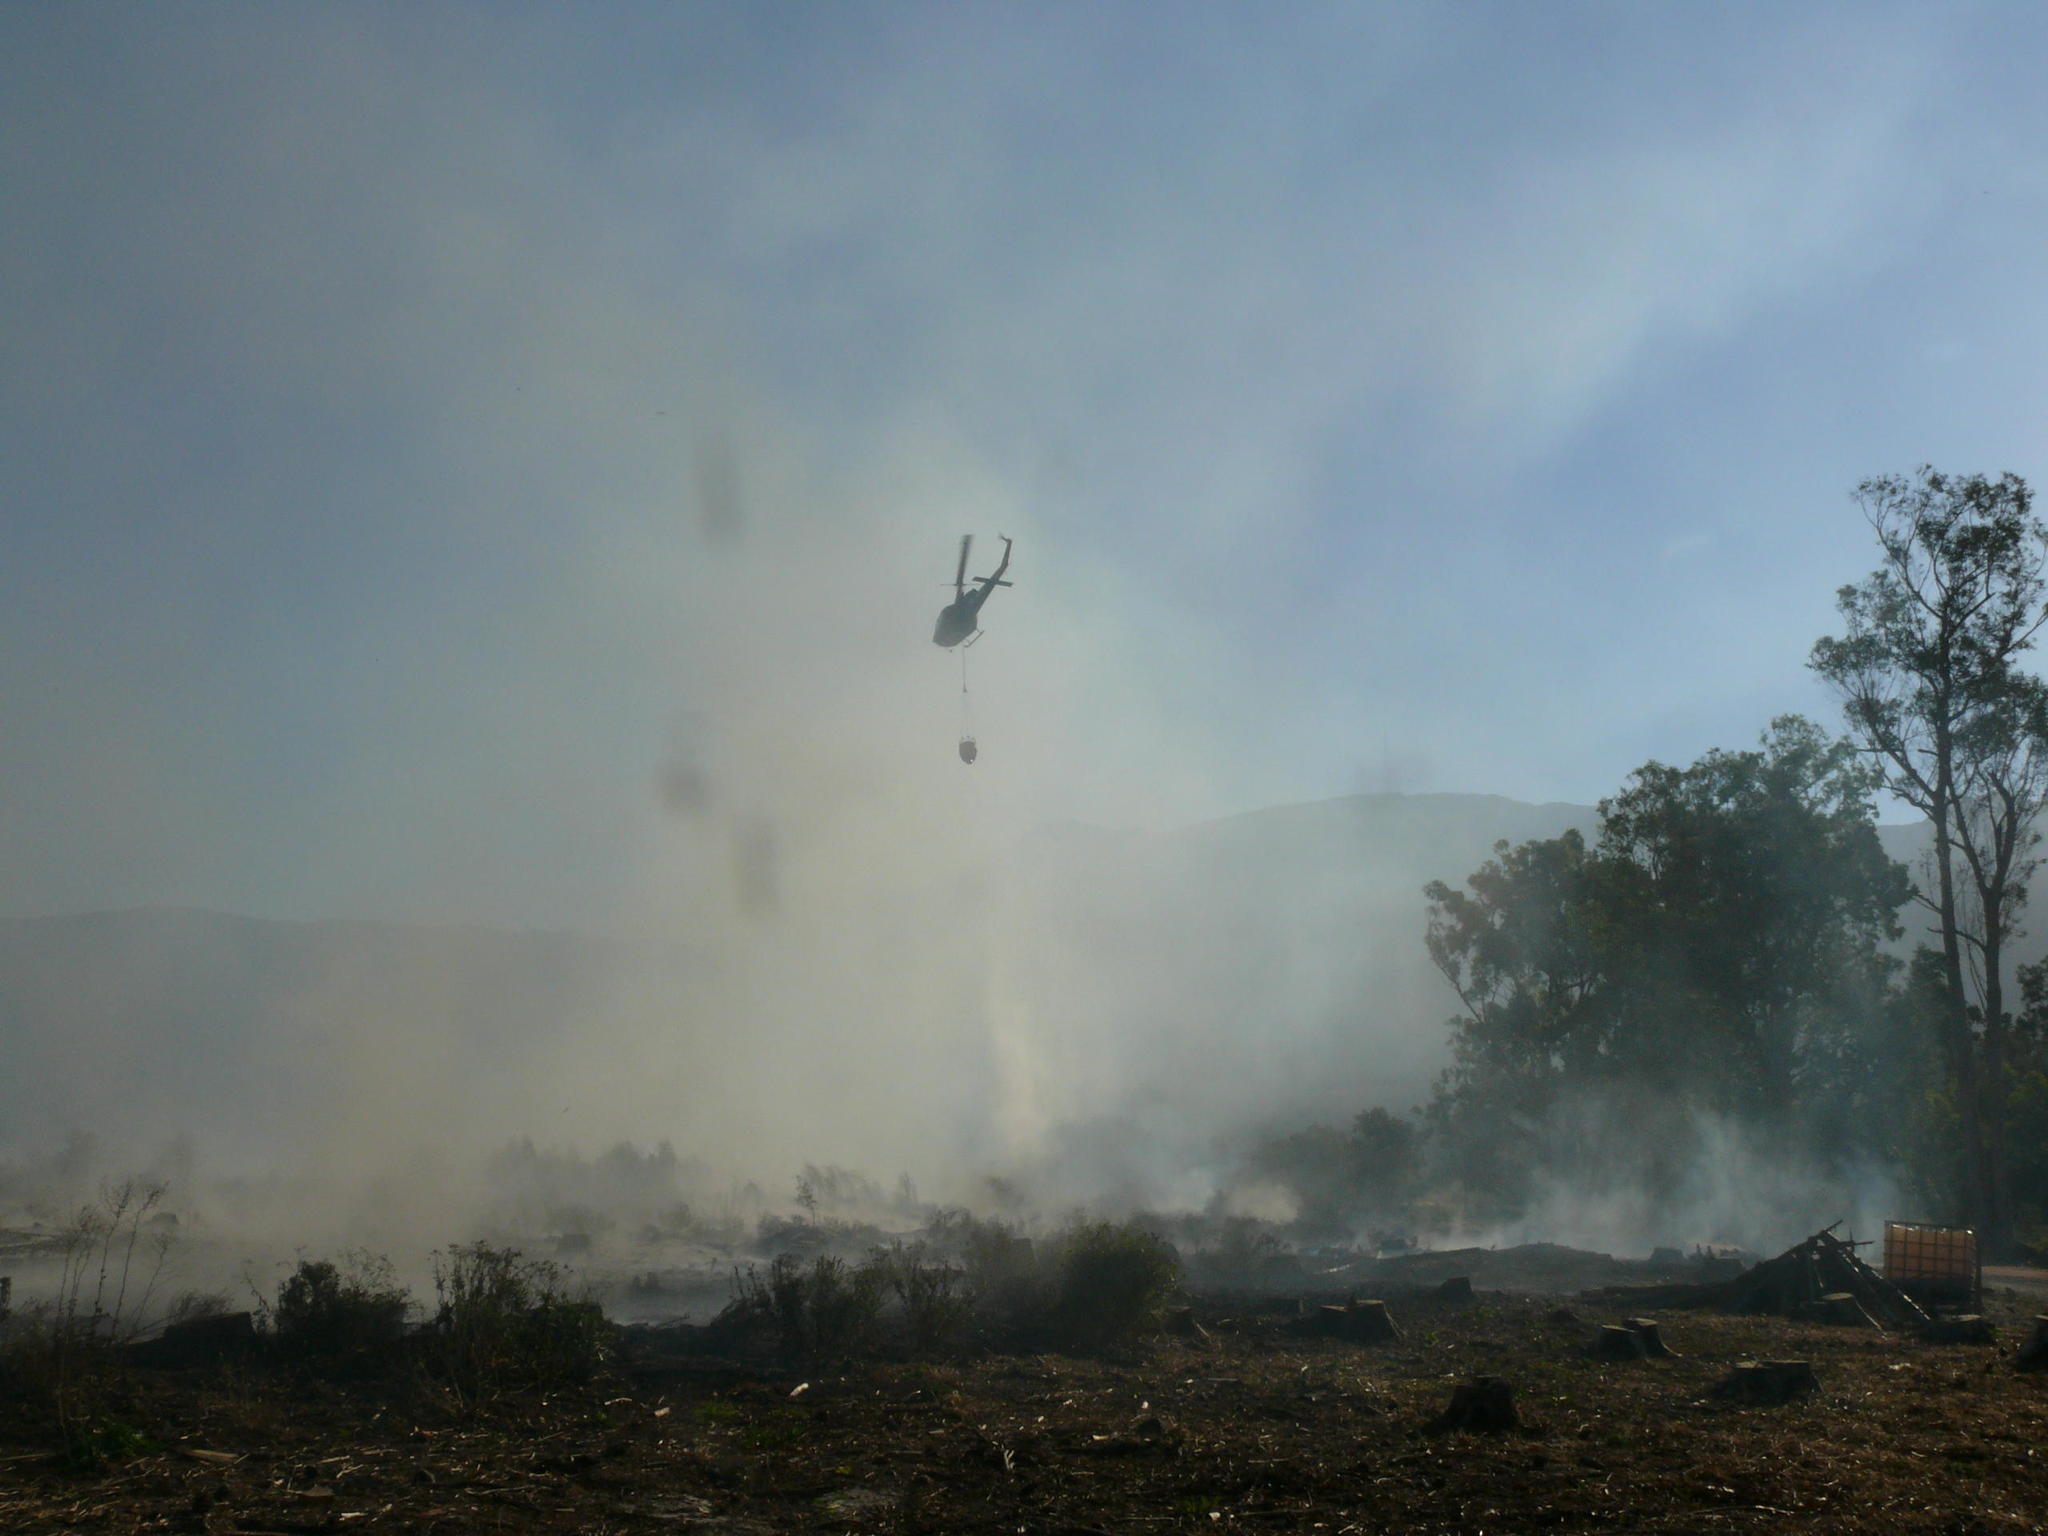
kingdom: Plantae
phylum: Tracheophyta
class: Magnoliopsida
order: Proteales
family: Proteaceae
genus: Protea
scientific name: Protea repens
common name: Sugarbush
